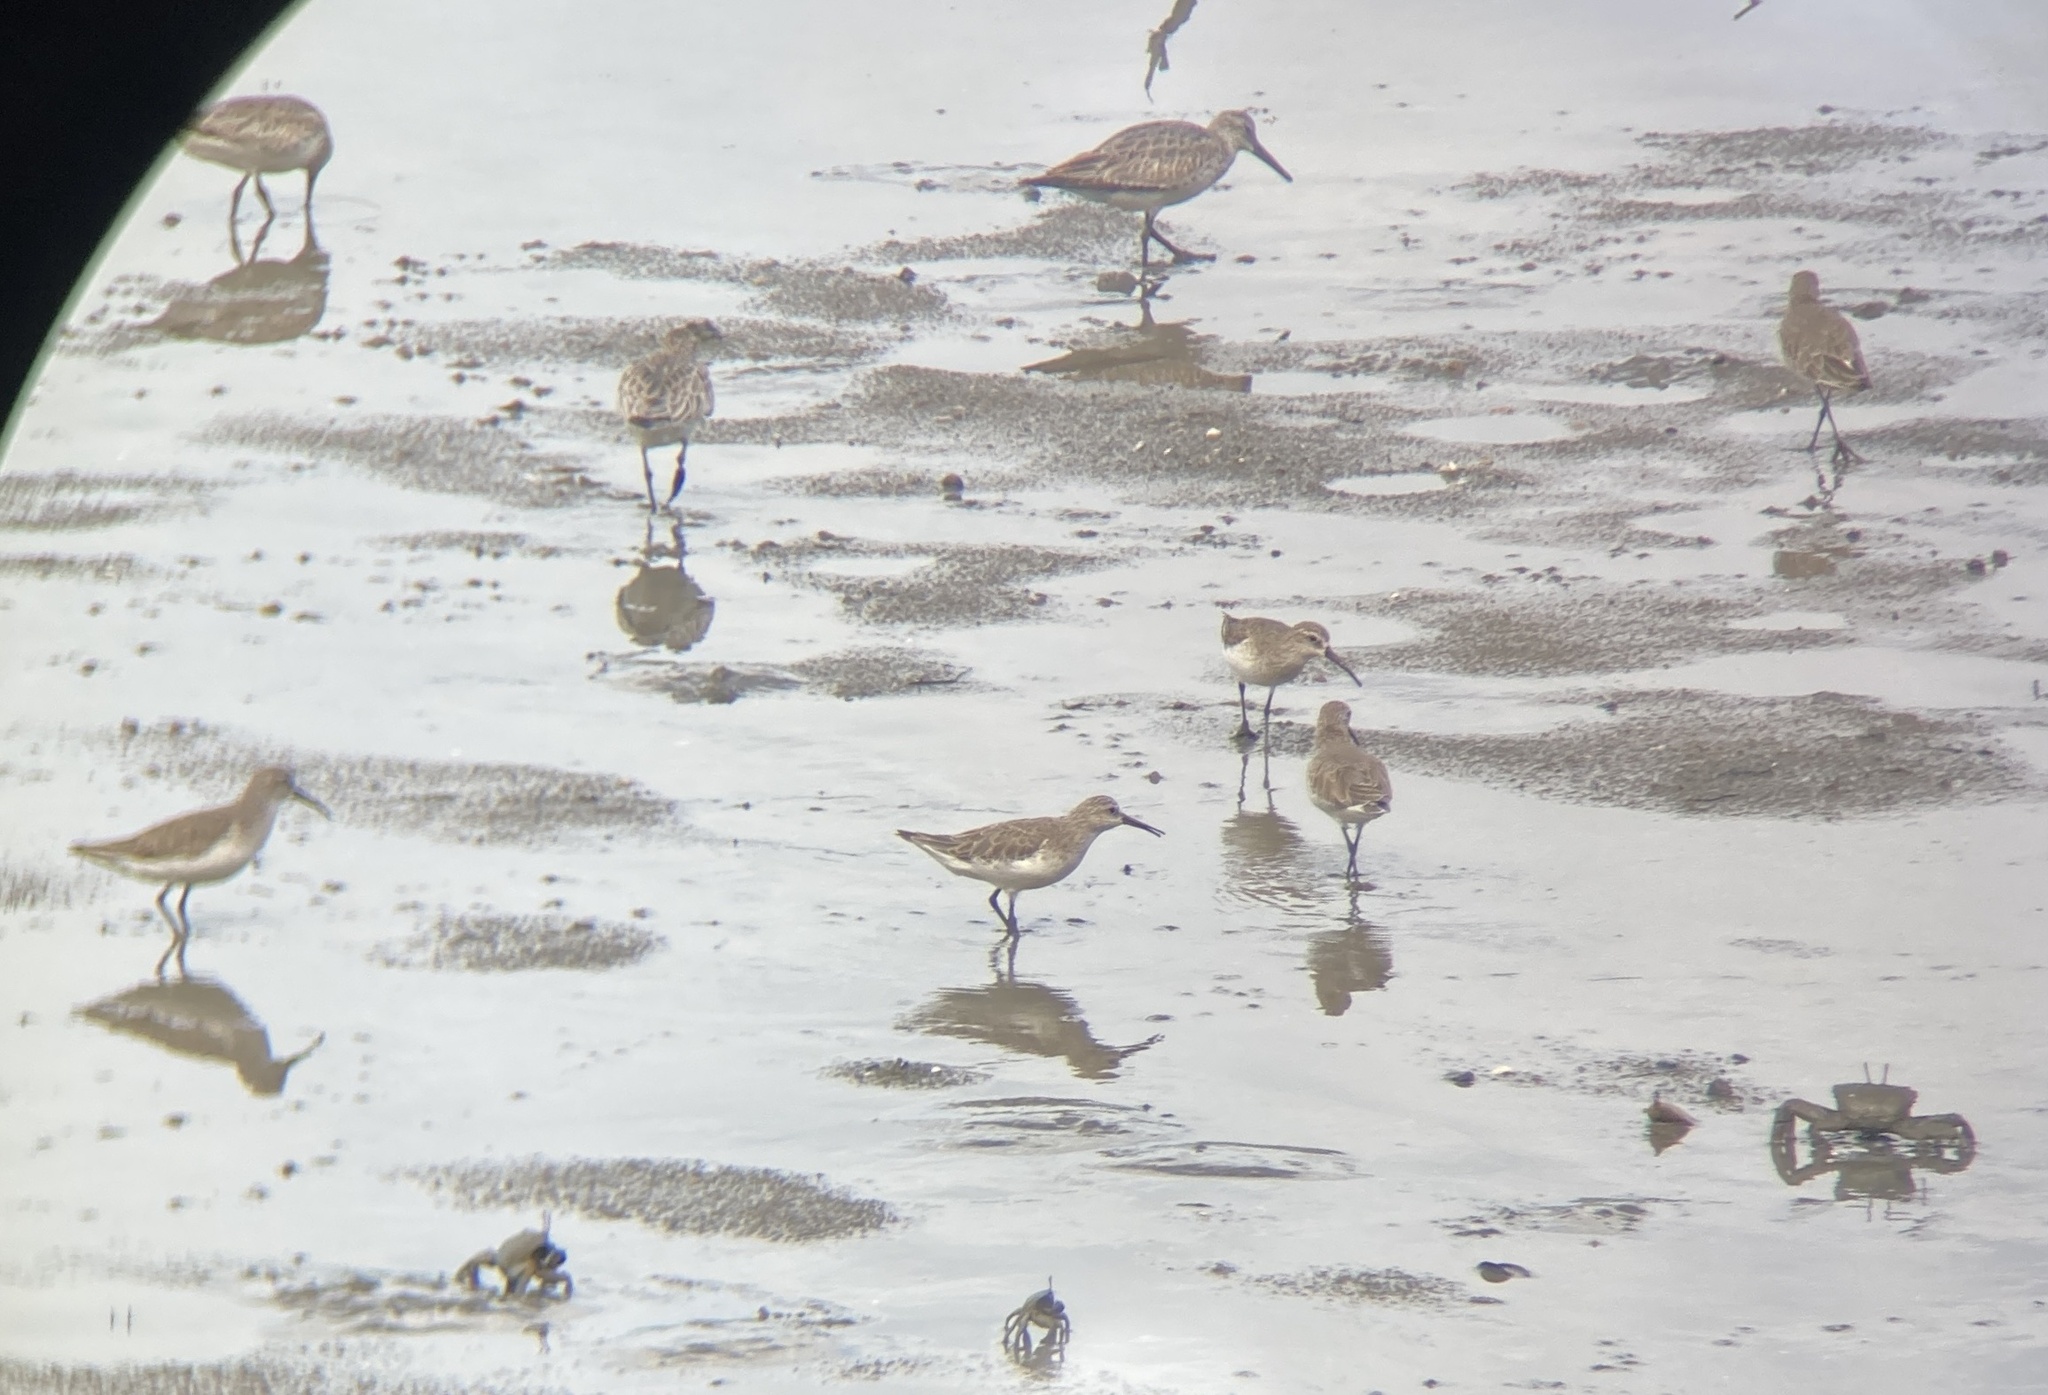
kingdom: Animalia
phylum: Chordata
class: Aves
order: Charadriiformes
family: Scolopacidae
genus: Calidris
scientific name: Calidris ferruginea
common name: Curlew sandpiper
